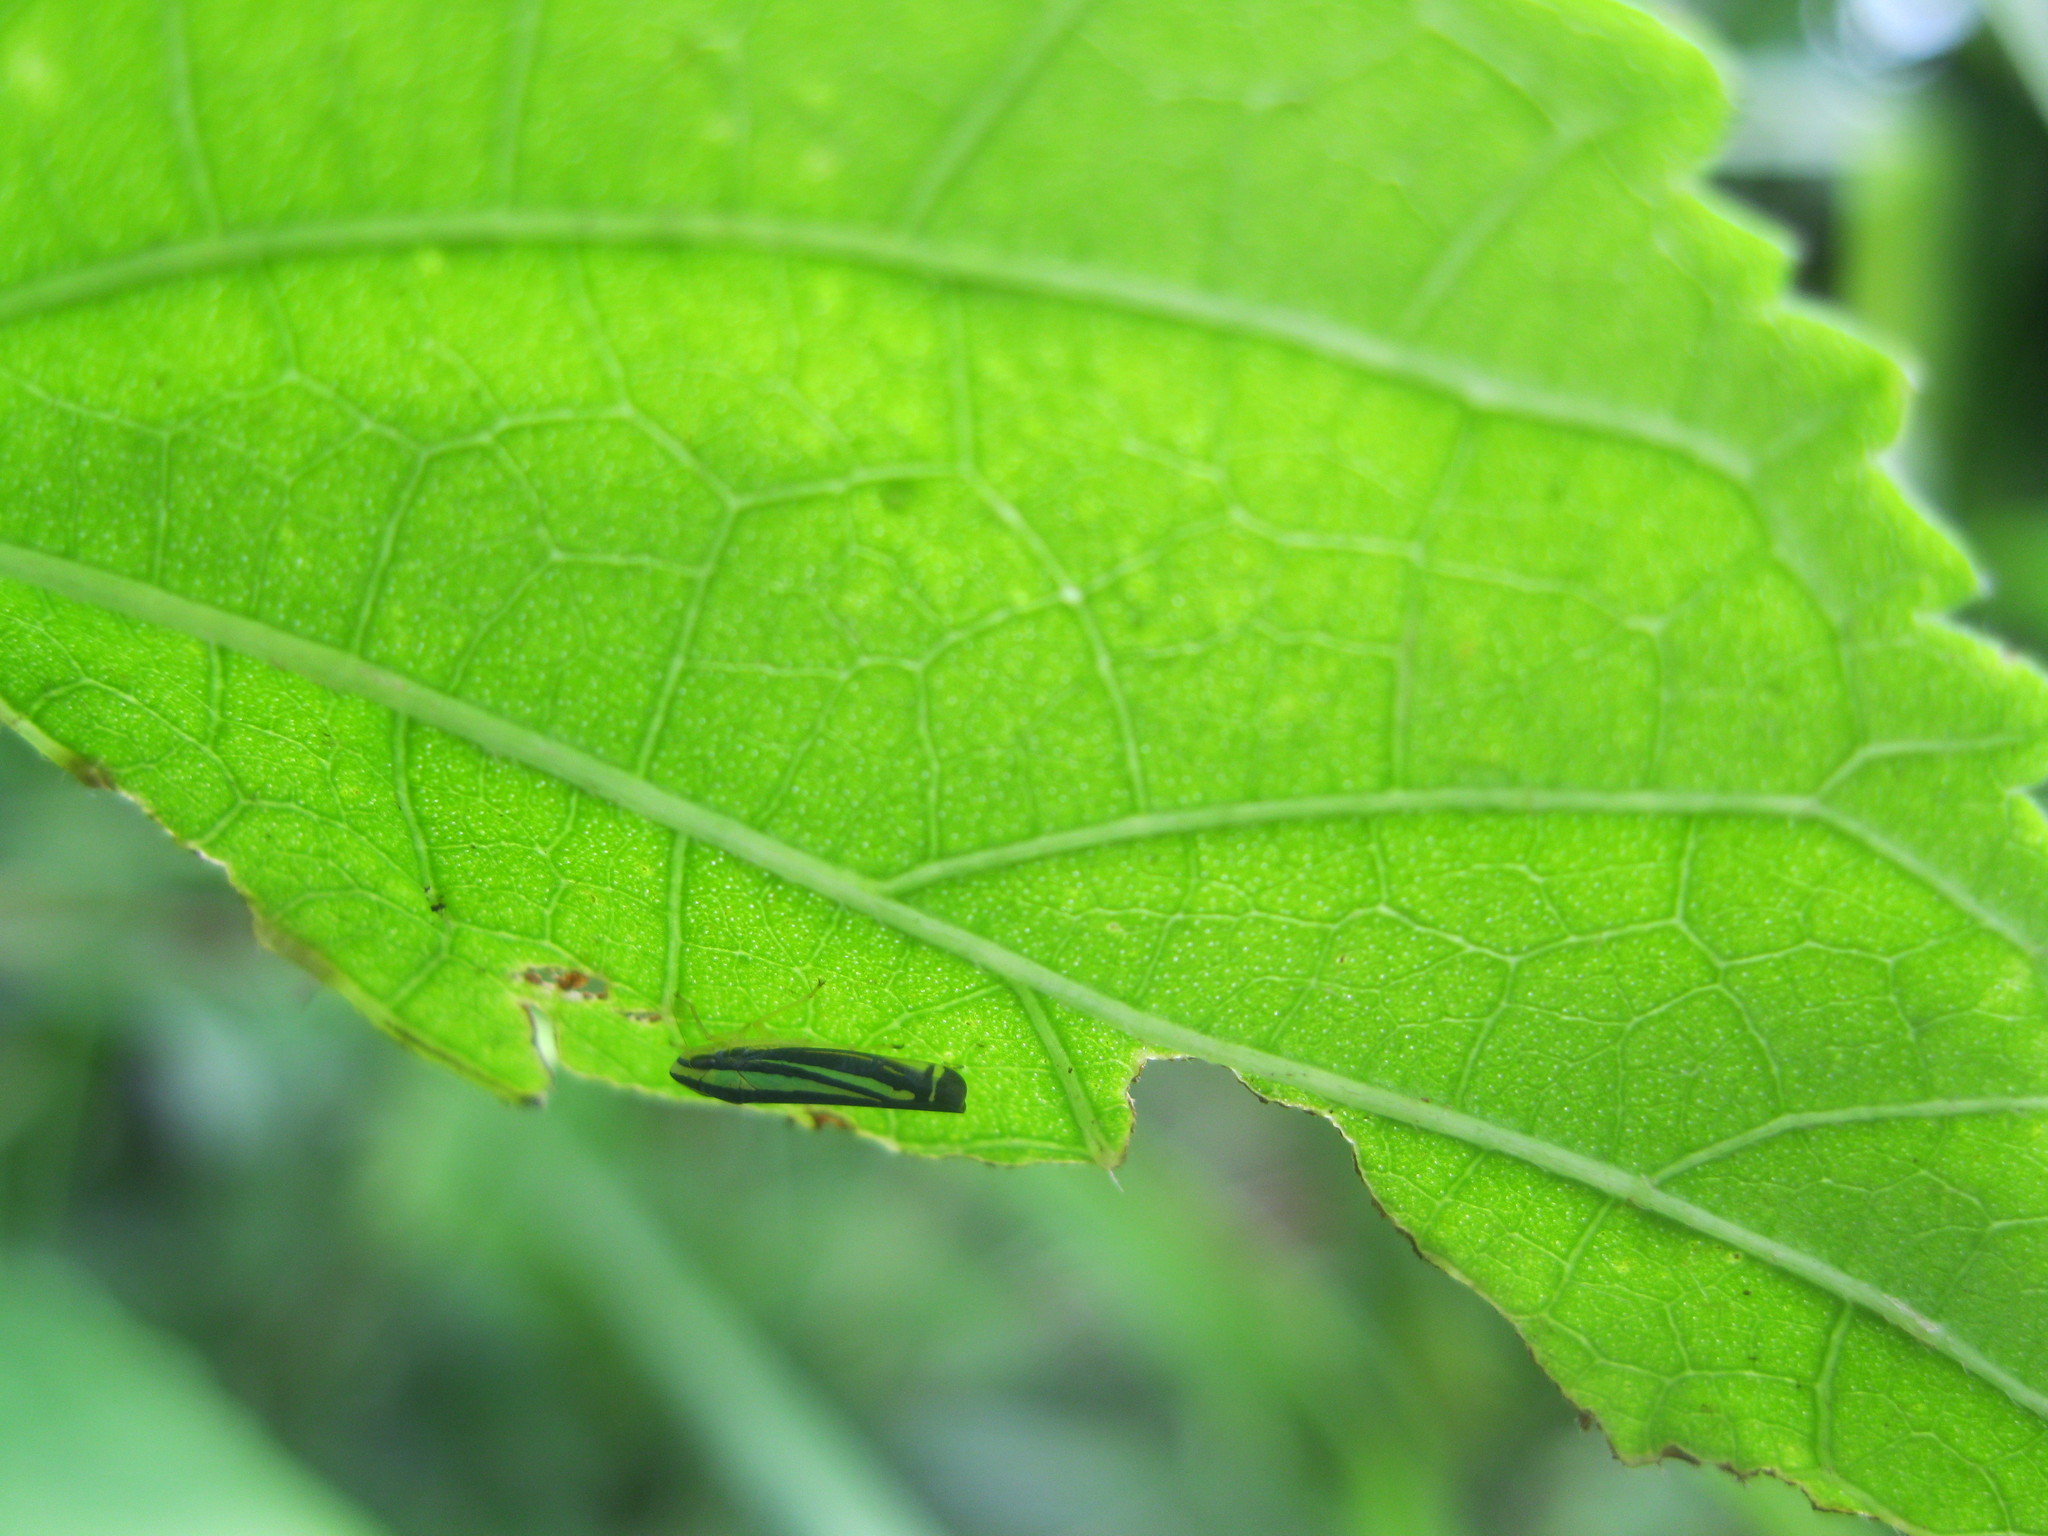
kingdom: Animalia
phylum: Arthropoda
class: Insecta
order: Hemiptera
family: Cicadellidae
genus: Fusigonalia
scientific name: Fusigonalia
